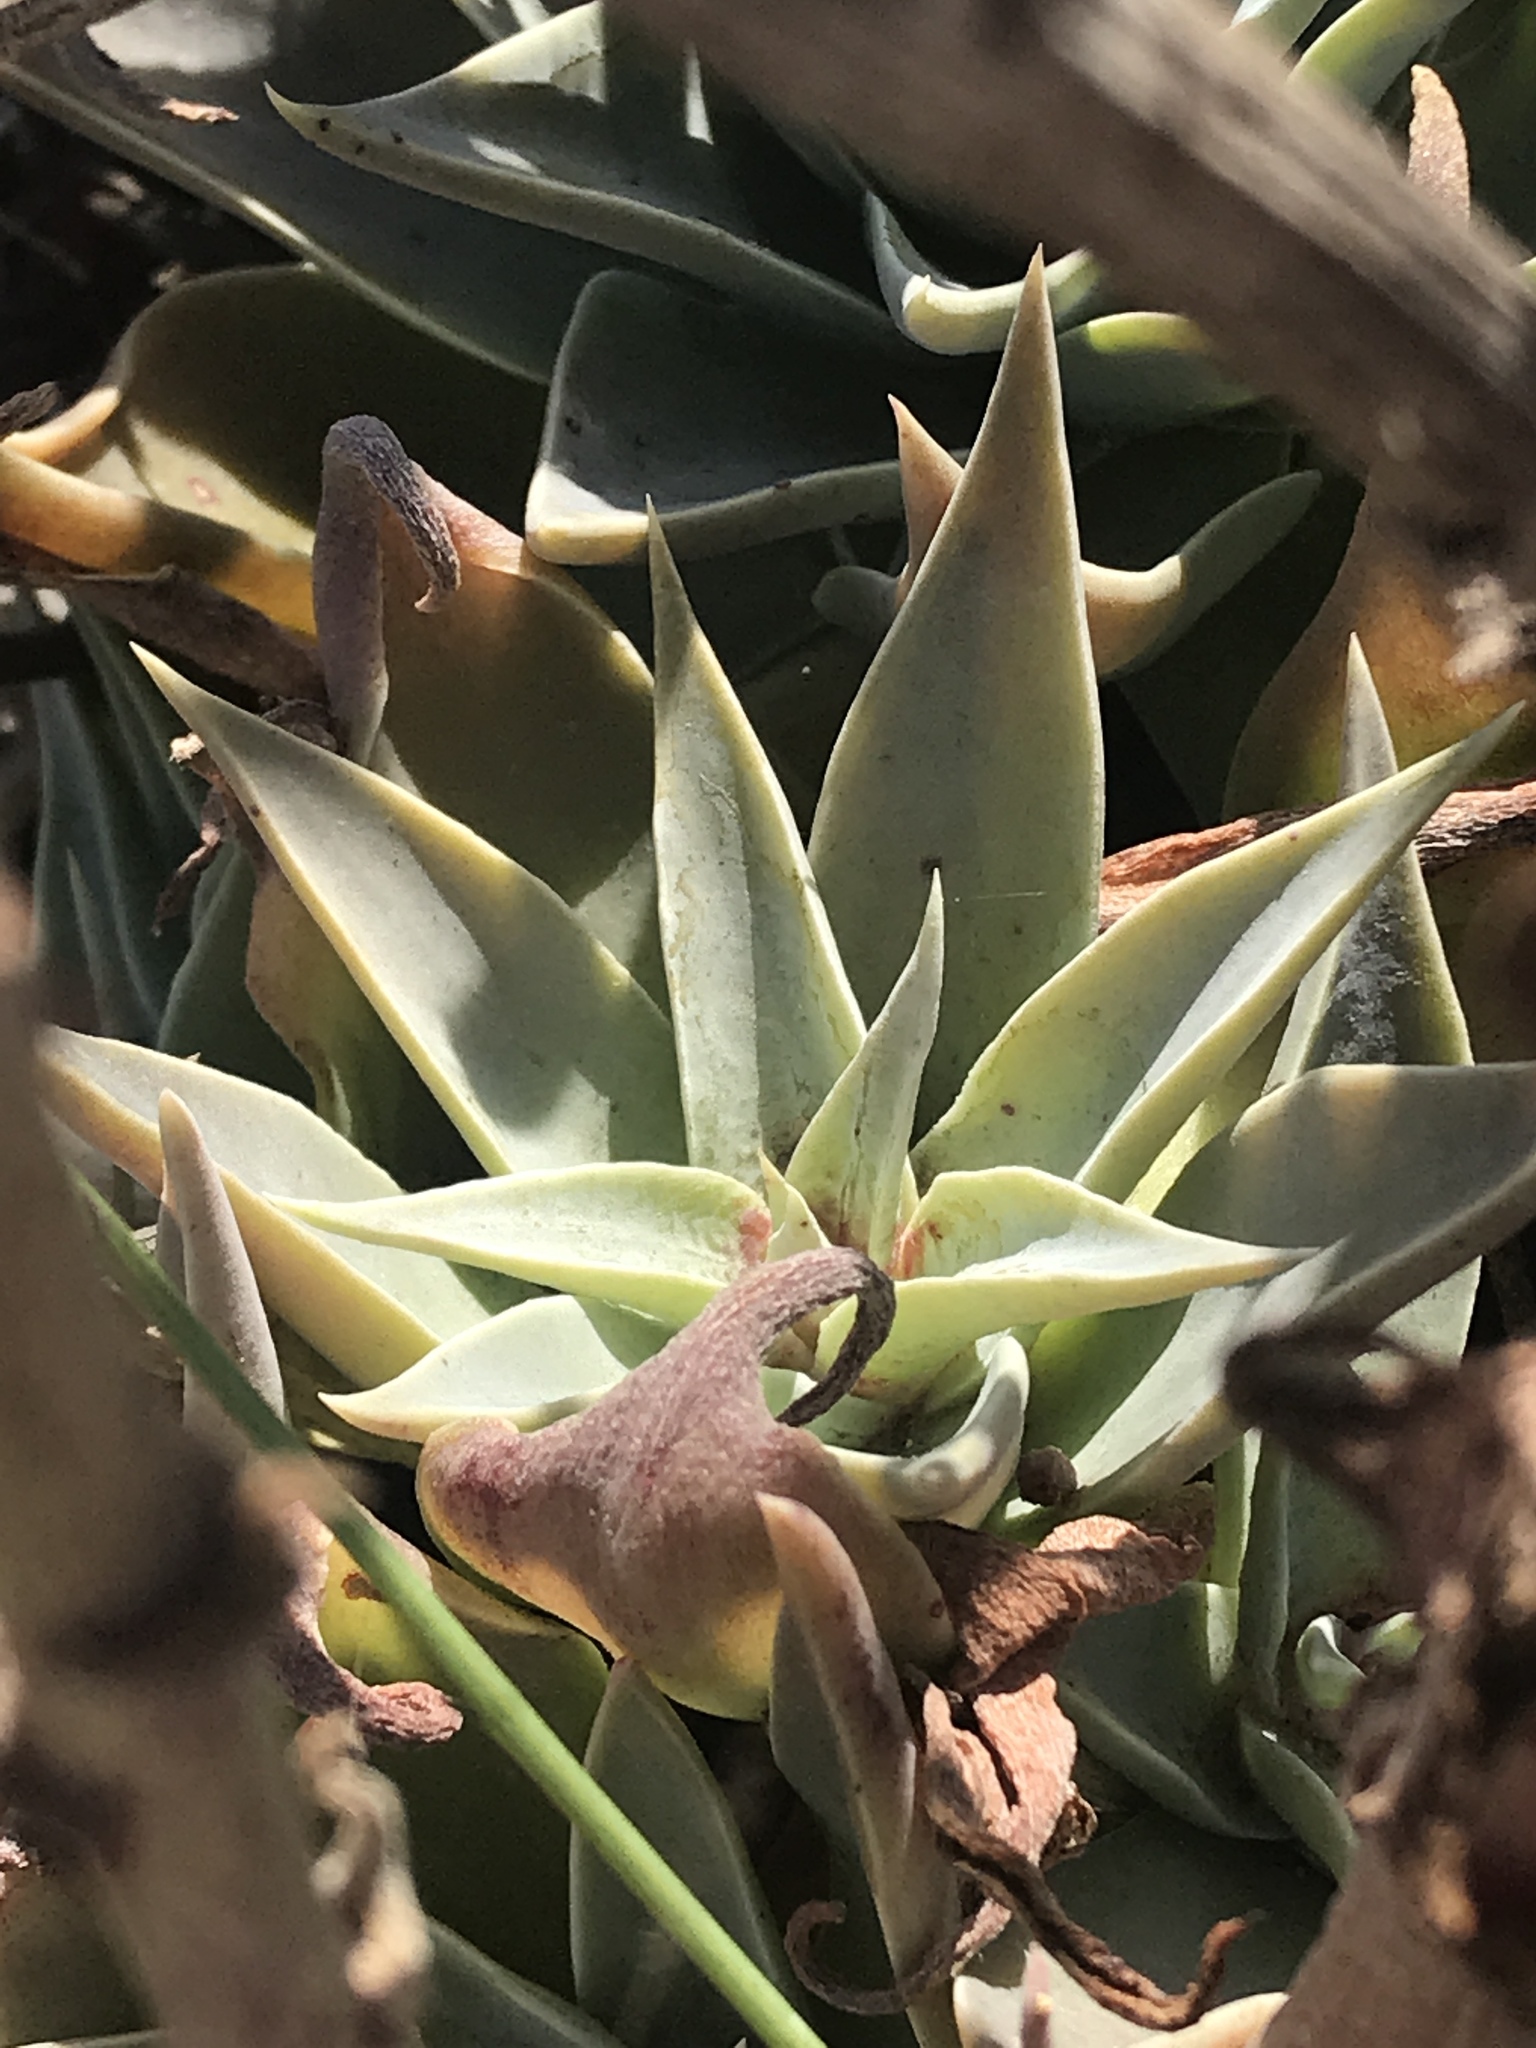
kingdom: Plantae
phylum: Tracheophyta
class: Magnoliopsida
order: Saxifragales
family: Crassulaceae
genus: Dudleya
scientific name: Dudleya lanceolata
